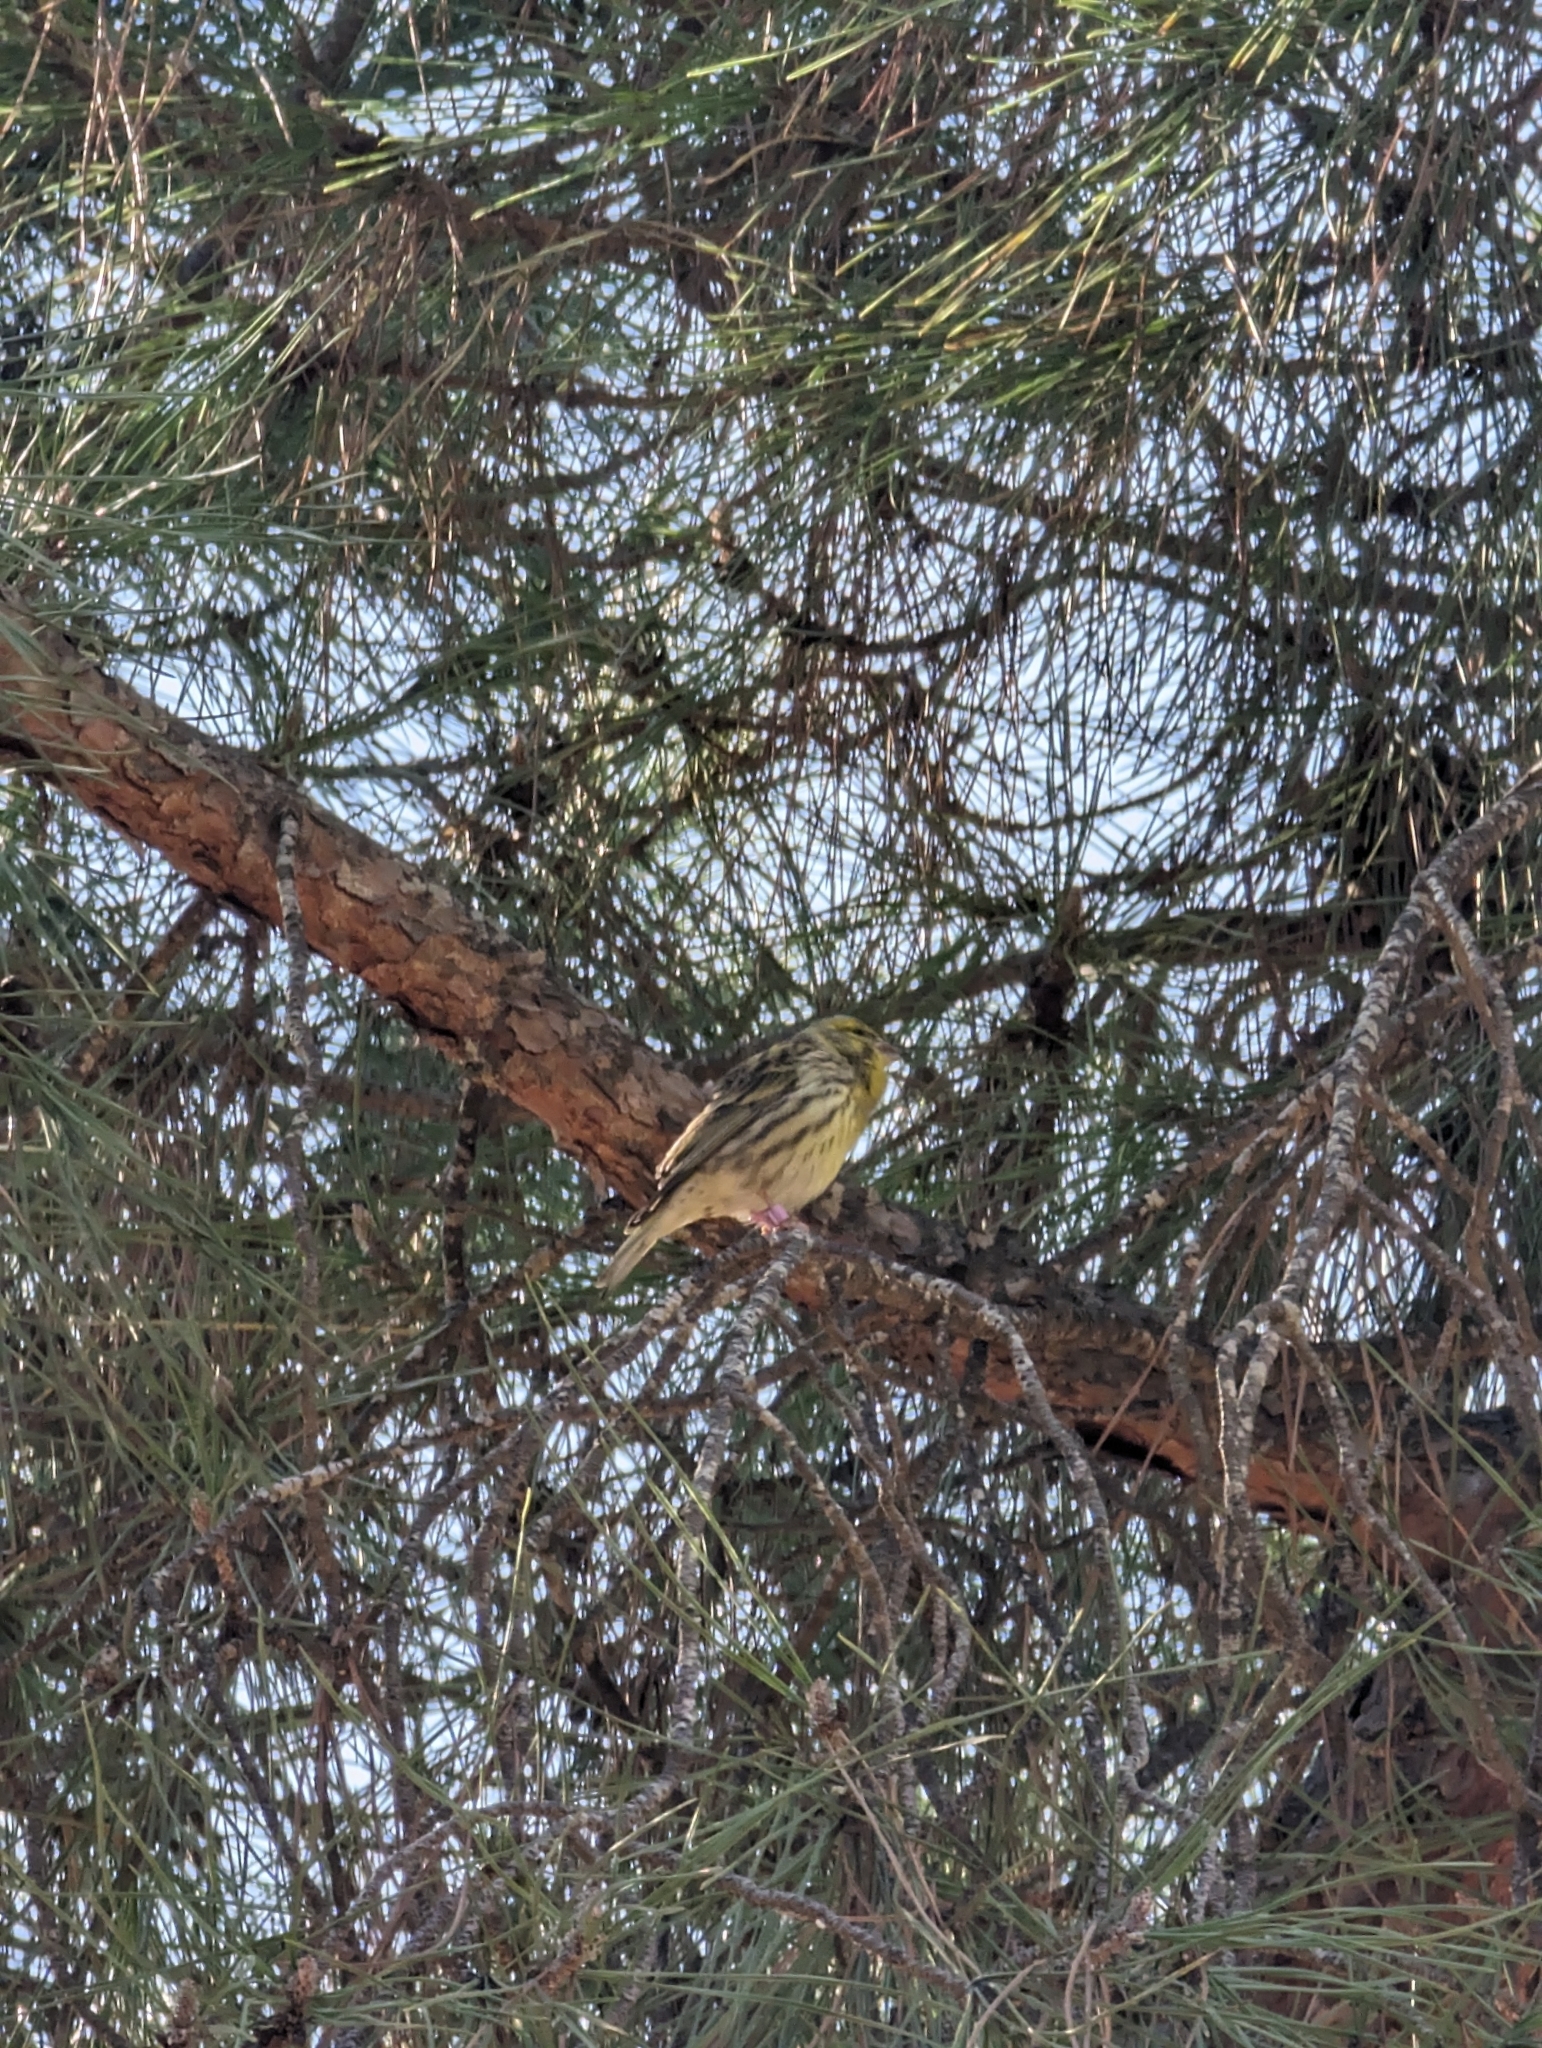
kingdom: Animalia
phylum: Chordata
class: Aves
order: Passeriformes
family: Fringillidae
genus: Serinus
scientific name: Serinus serinus
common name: European serin
